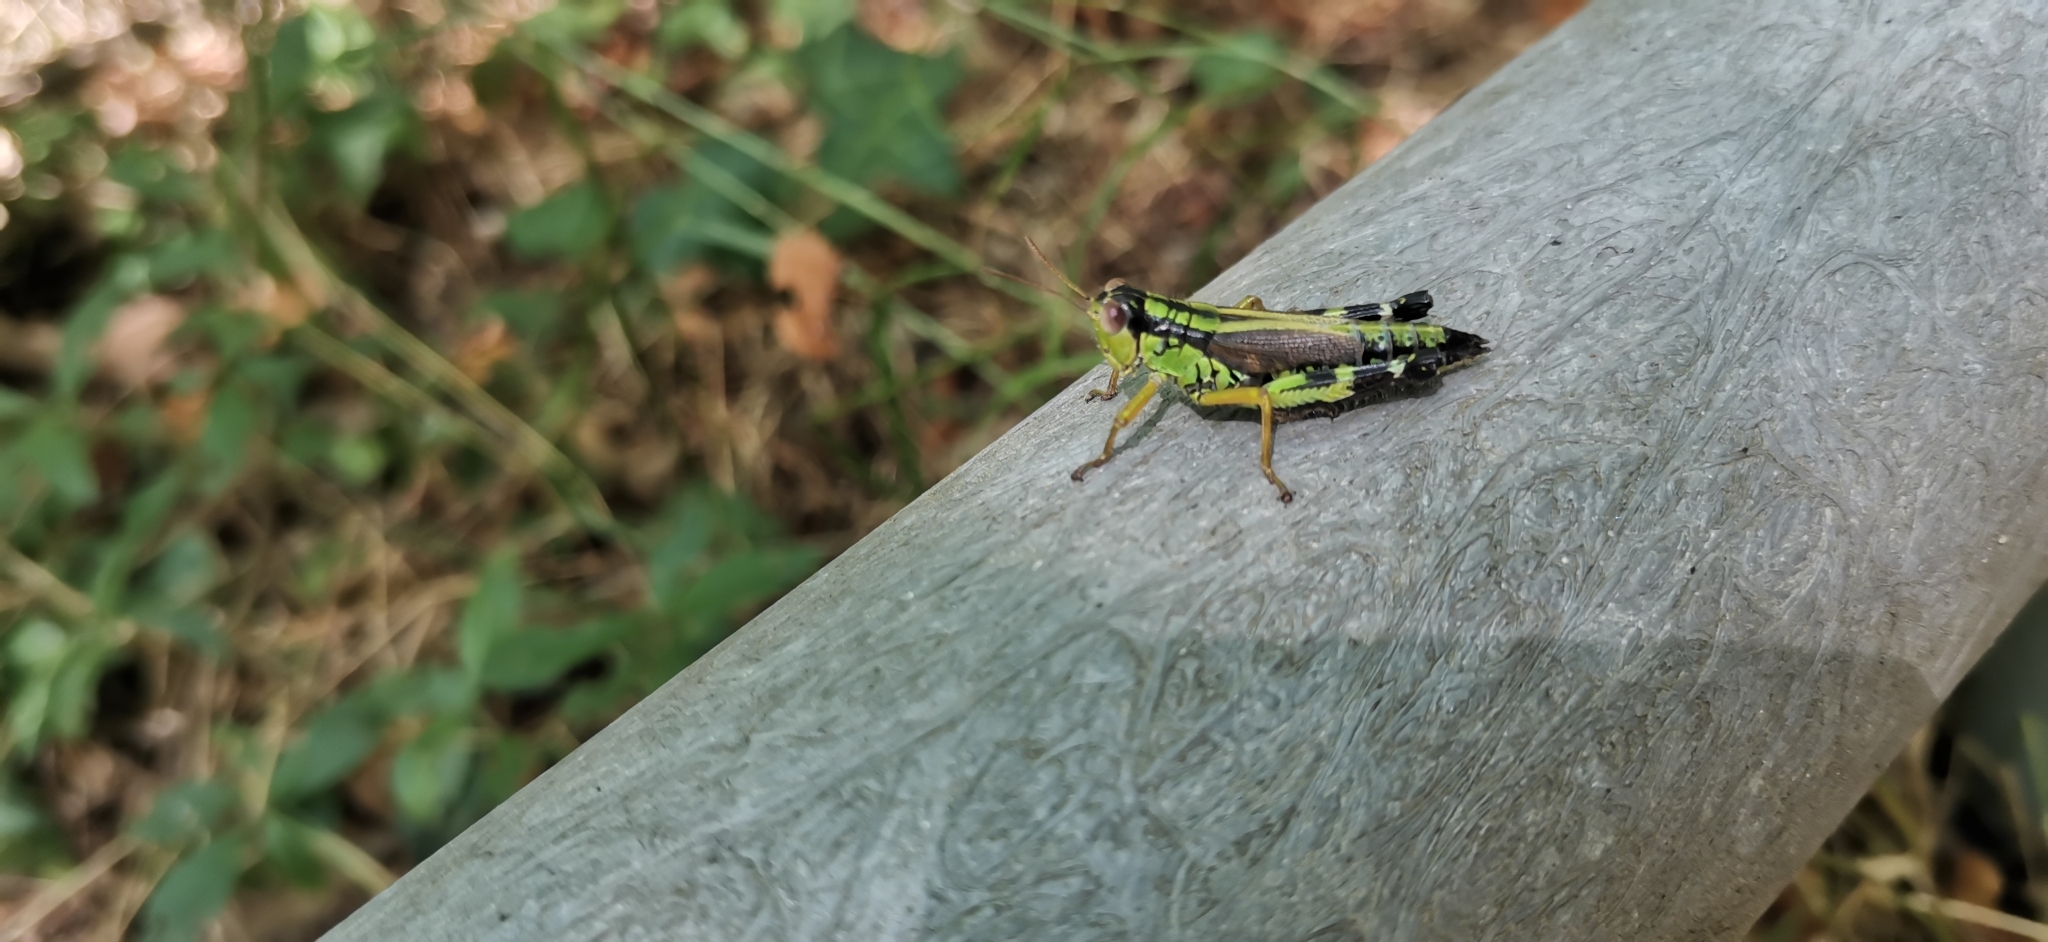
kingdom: Animalia
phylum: Arthropoda
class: Insecta
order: Orthoptera
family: Acrididae
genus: Nadigella
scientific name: Nadigella formosanta
